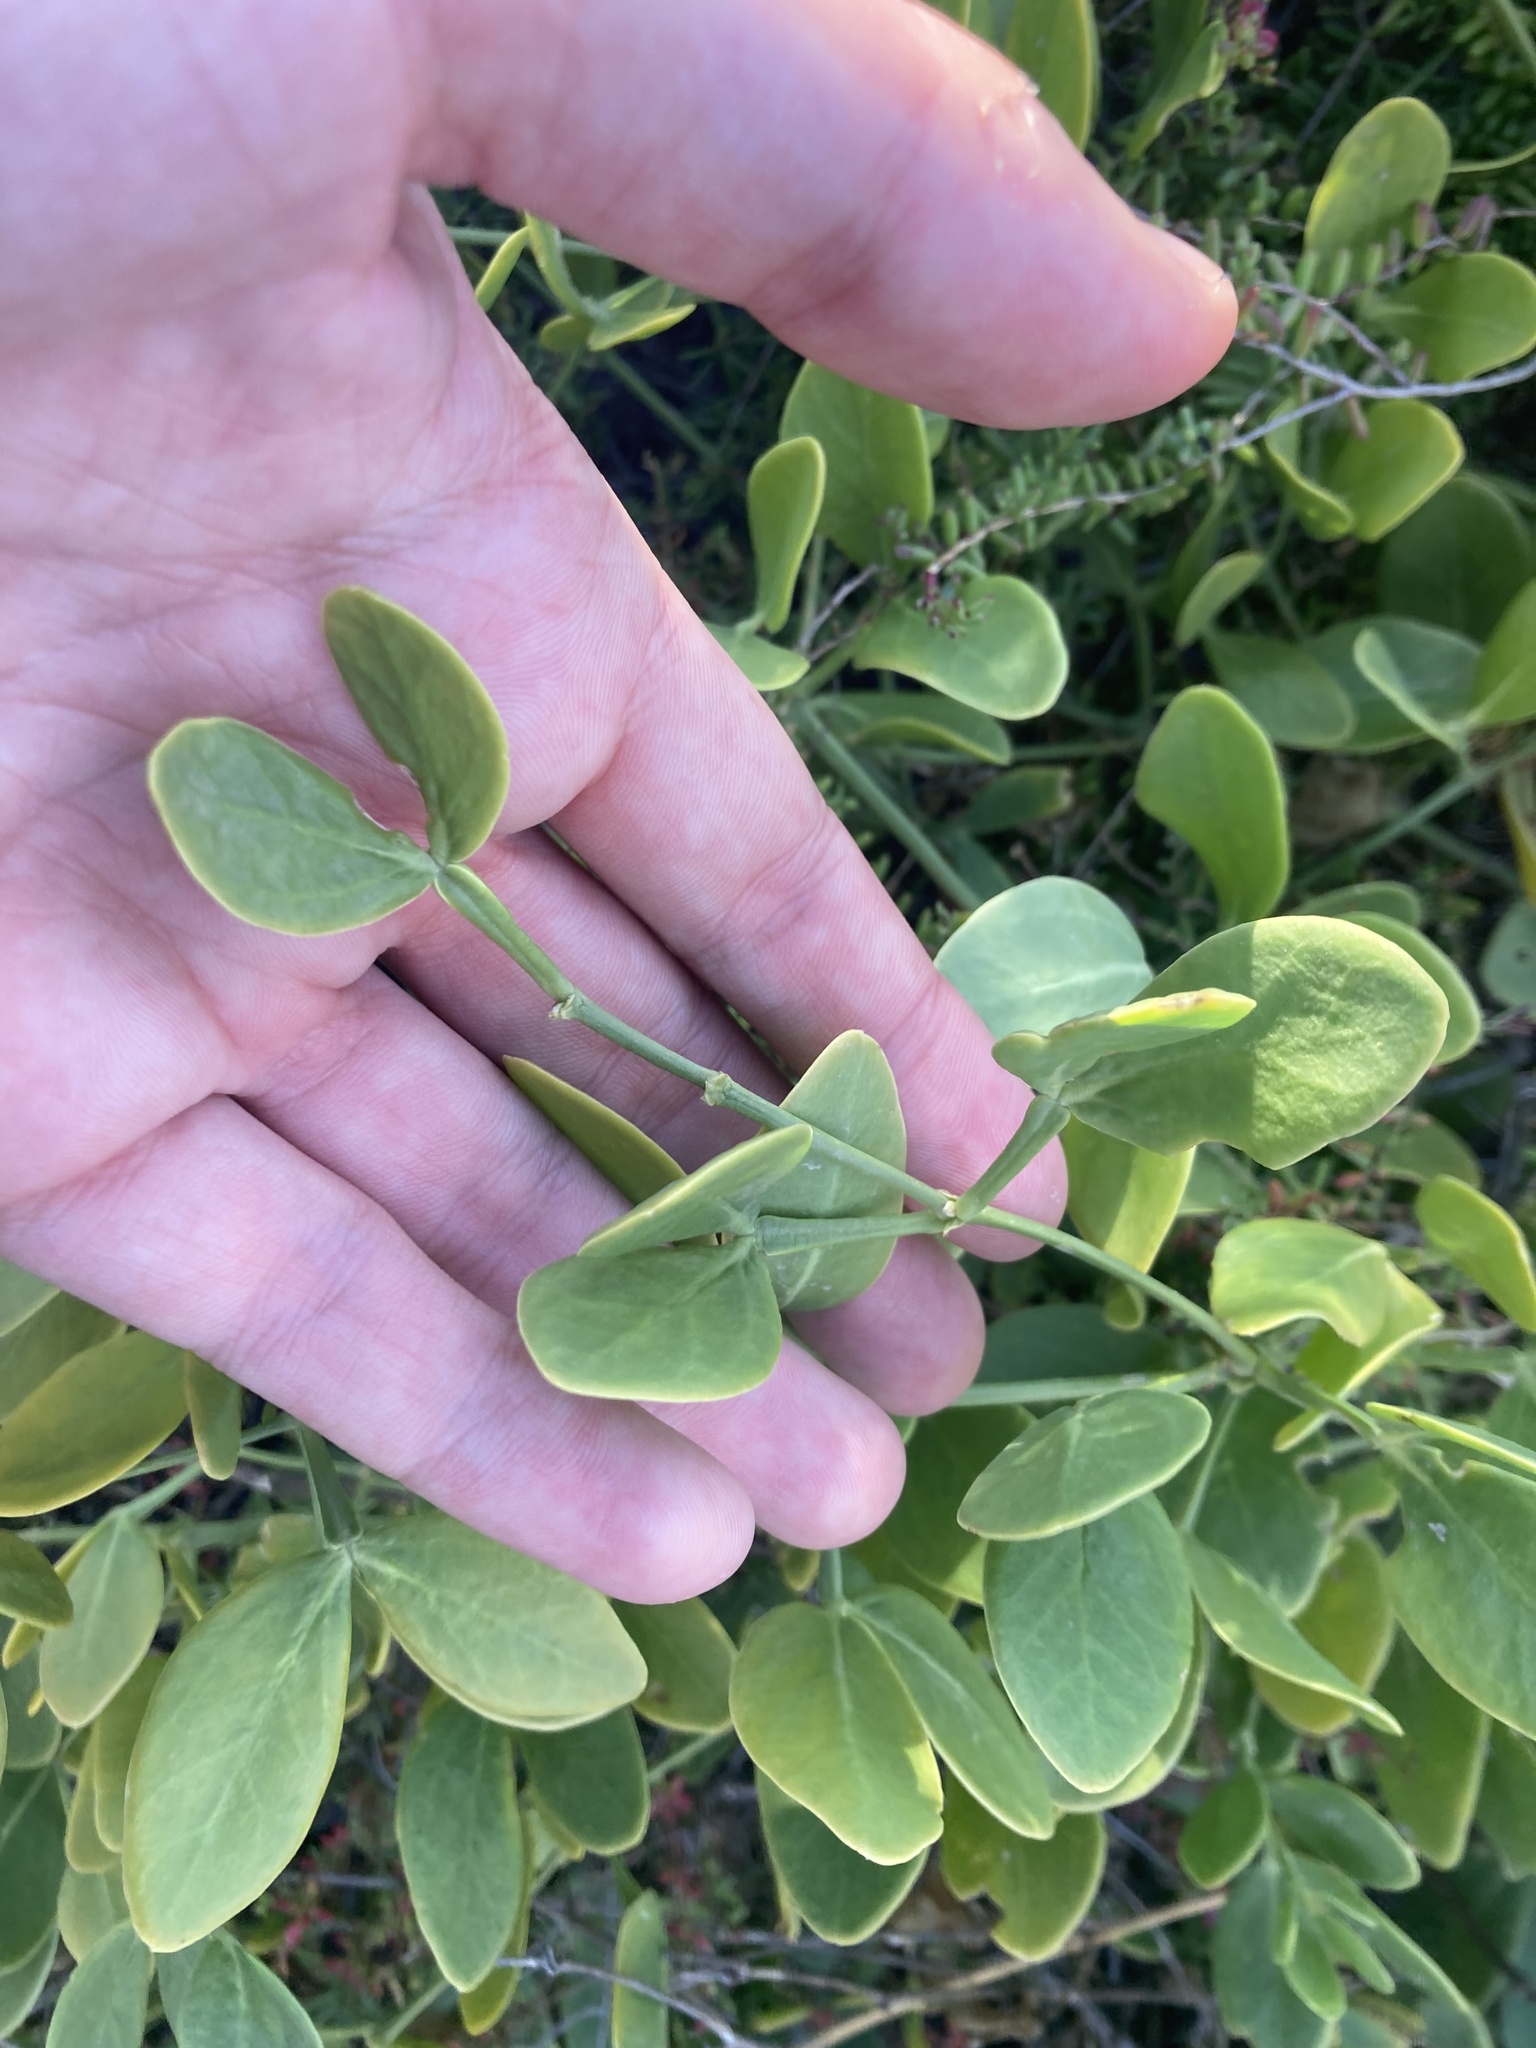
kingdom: Plantae
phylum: Tracheophyta
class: Magnoliopsida
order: Zygophyllales
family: Zygophyllaceae
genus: Zygophyllum
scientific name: Zygophyllum fabago
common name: Syrian beancaper
